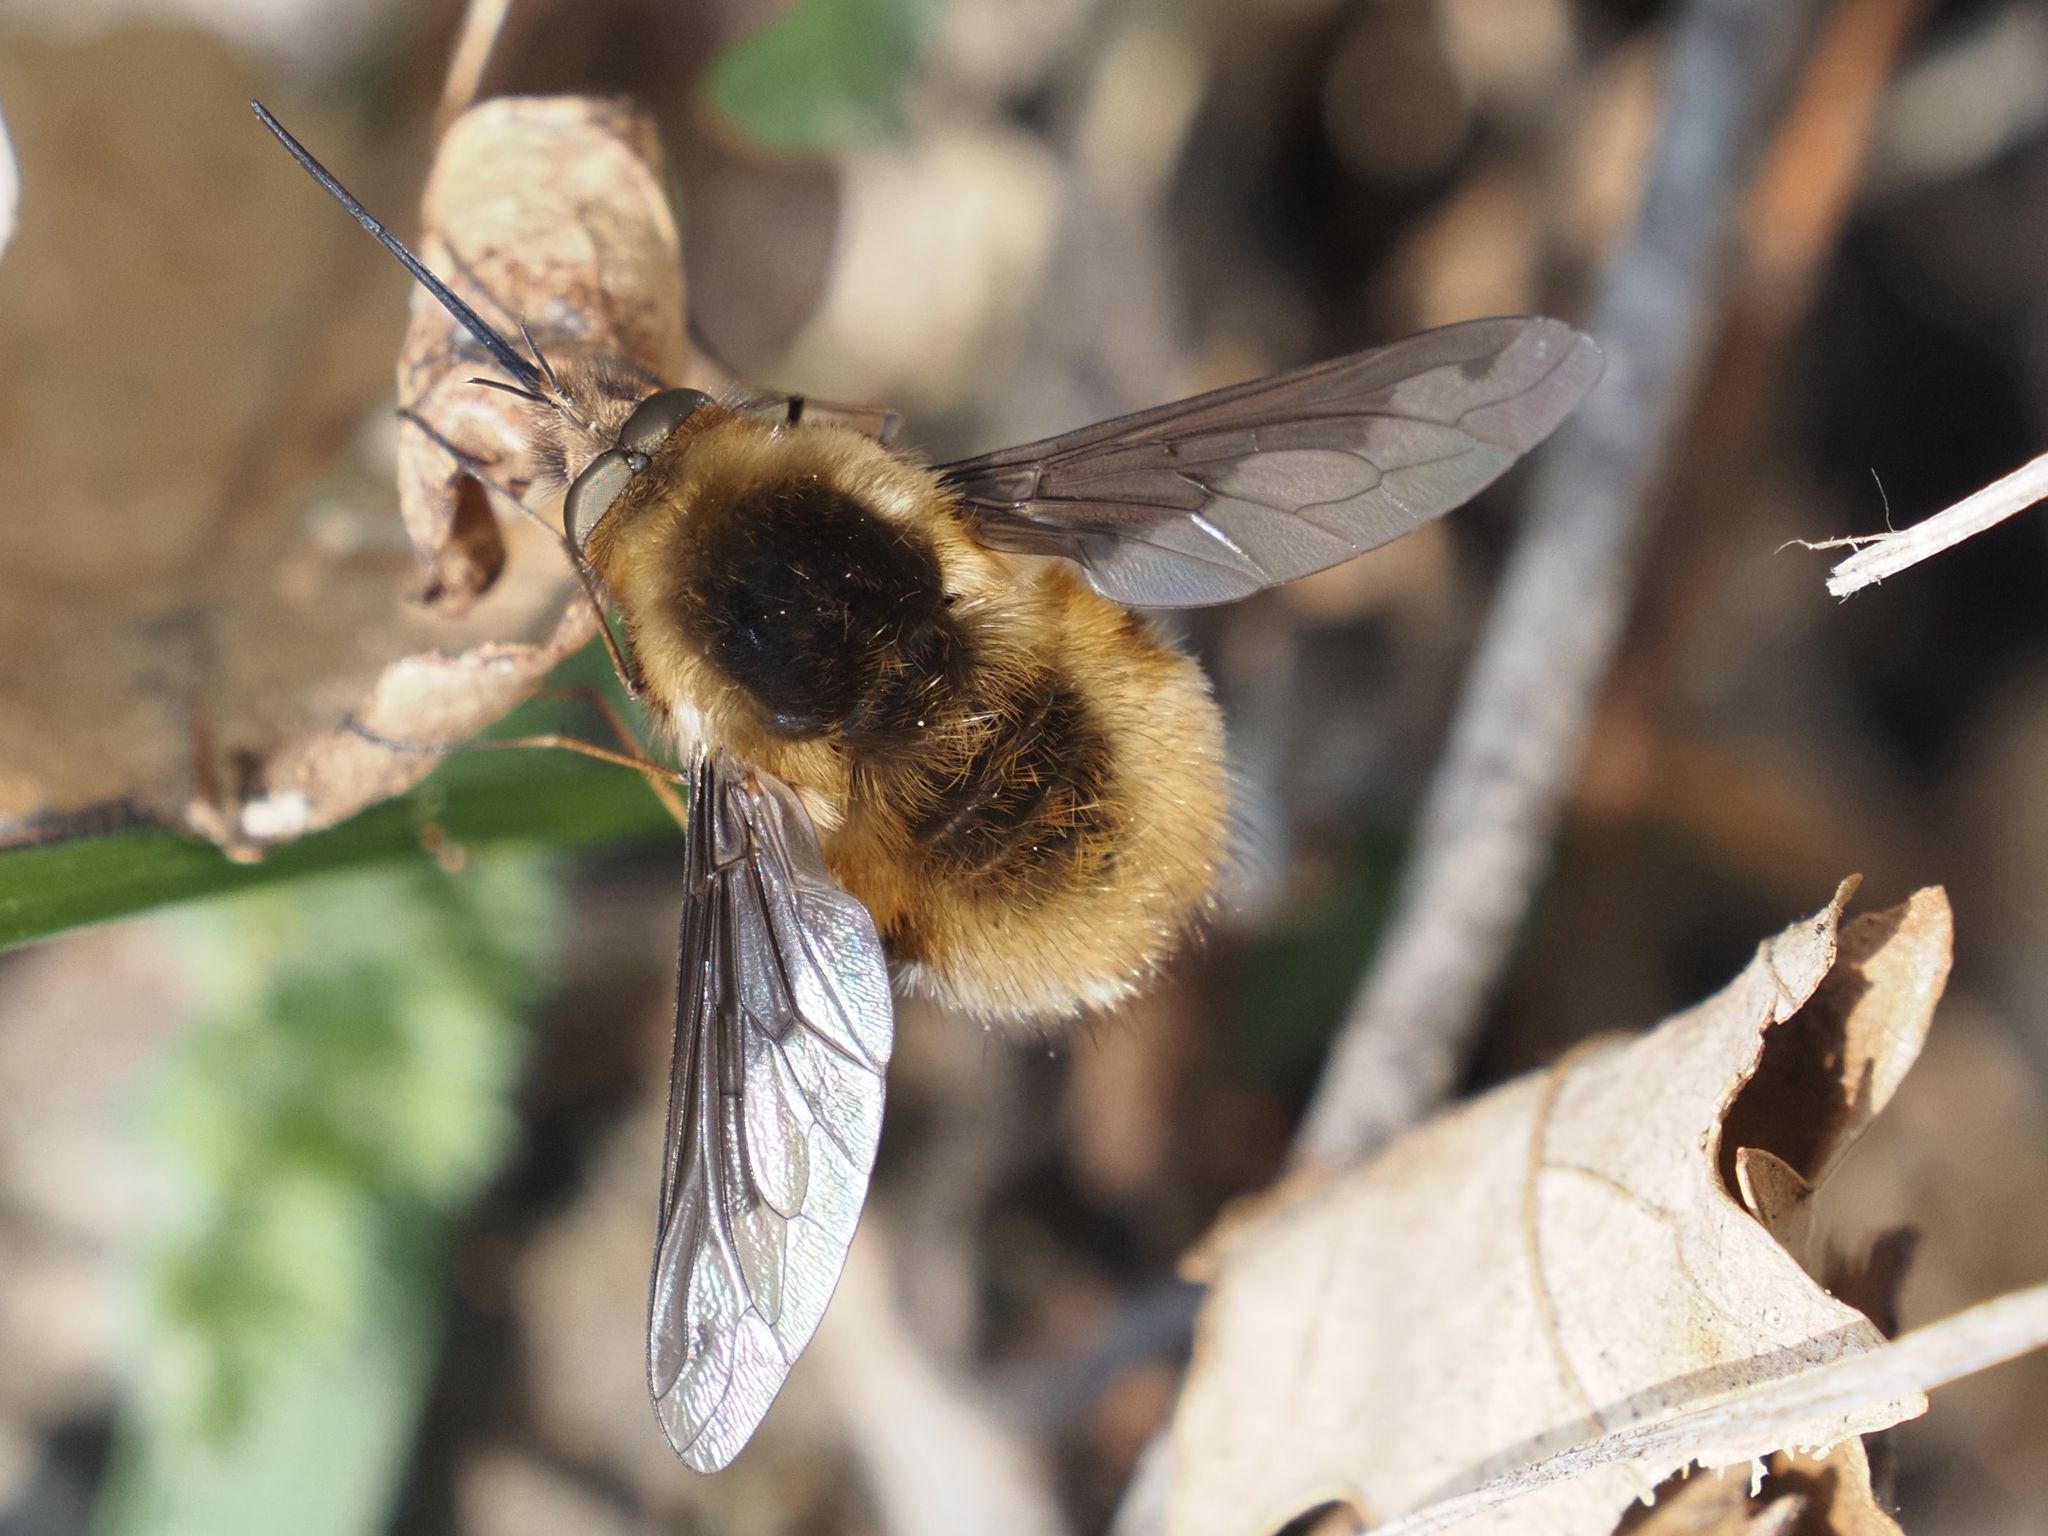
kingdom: Animalia
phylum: Arthropoda
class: Insecta
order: Diptera
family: Bombyliidae
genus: Bombylius
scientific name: Bombylius major
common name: Bee fly
